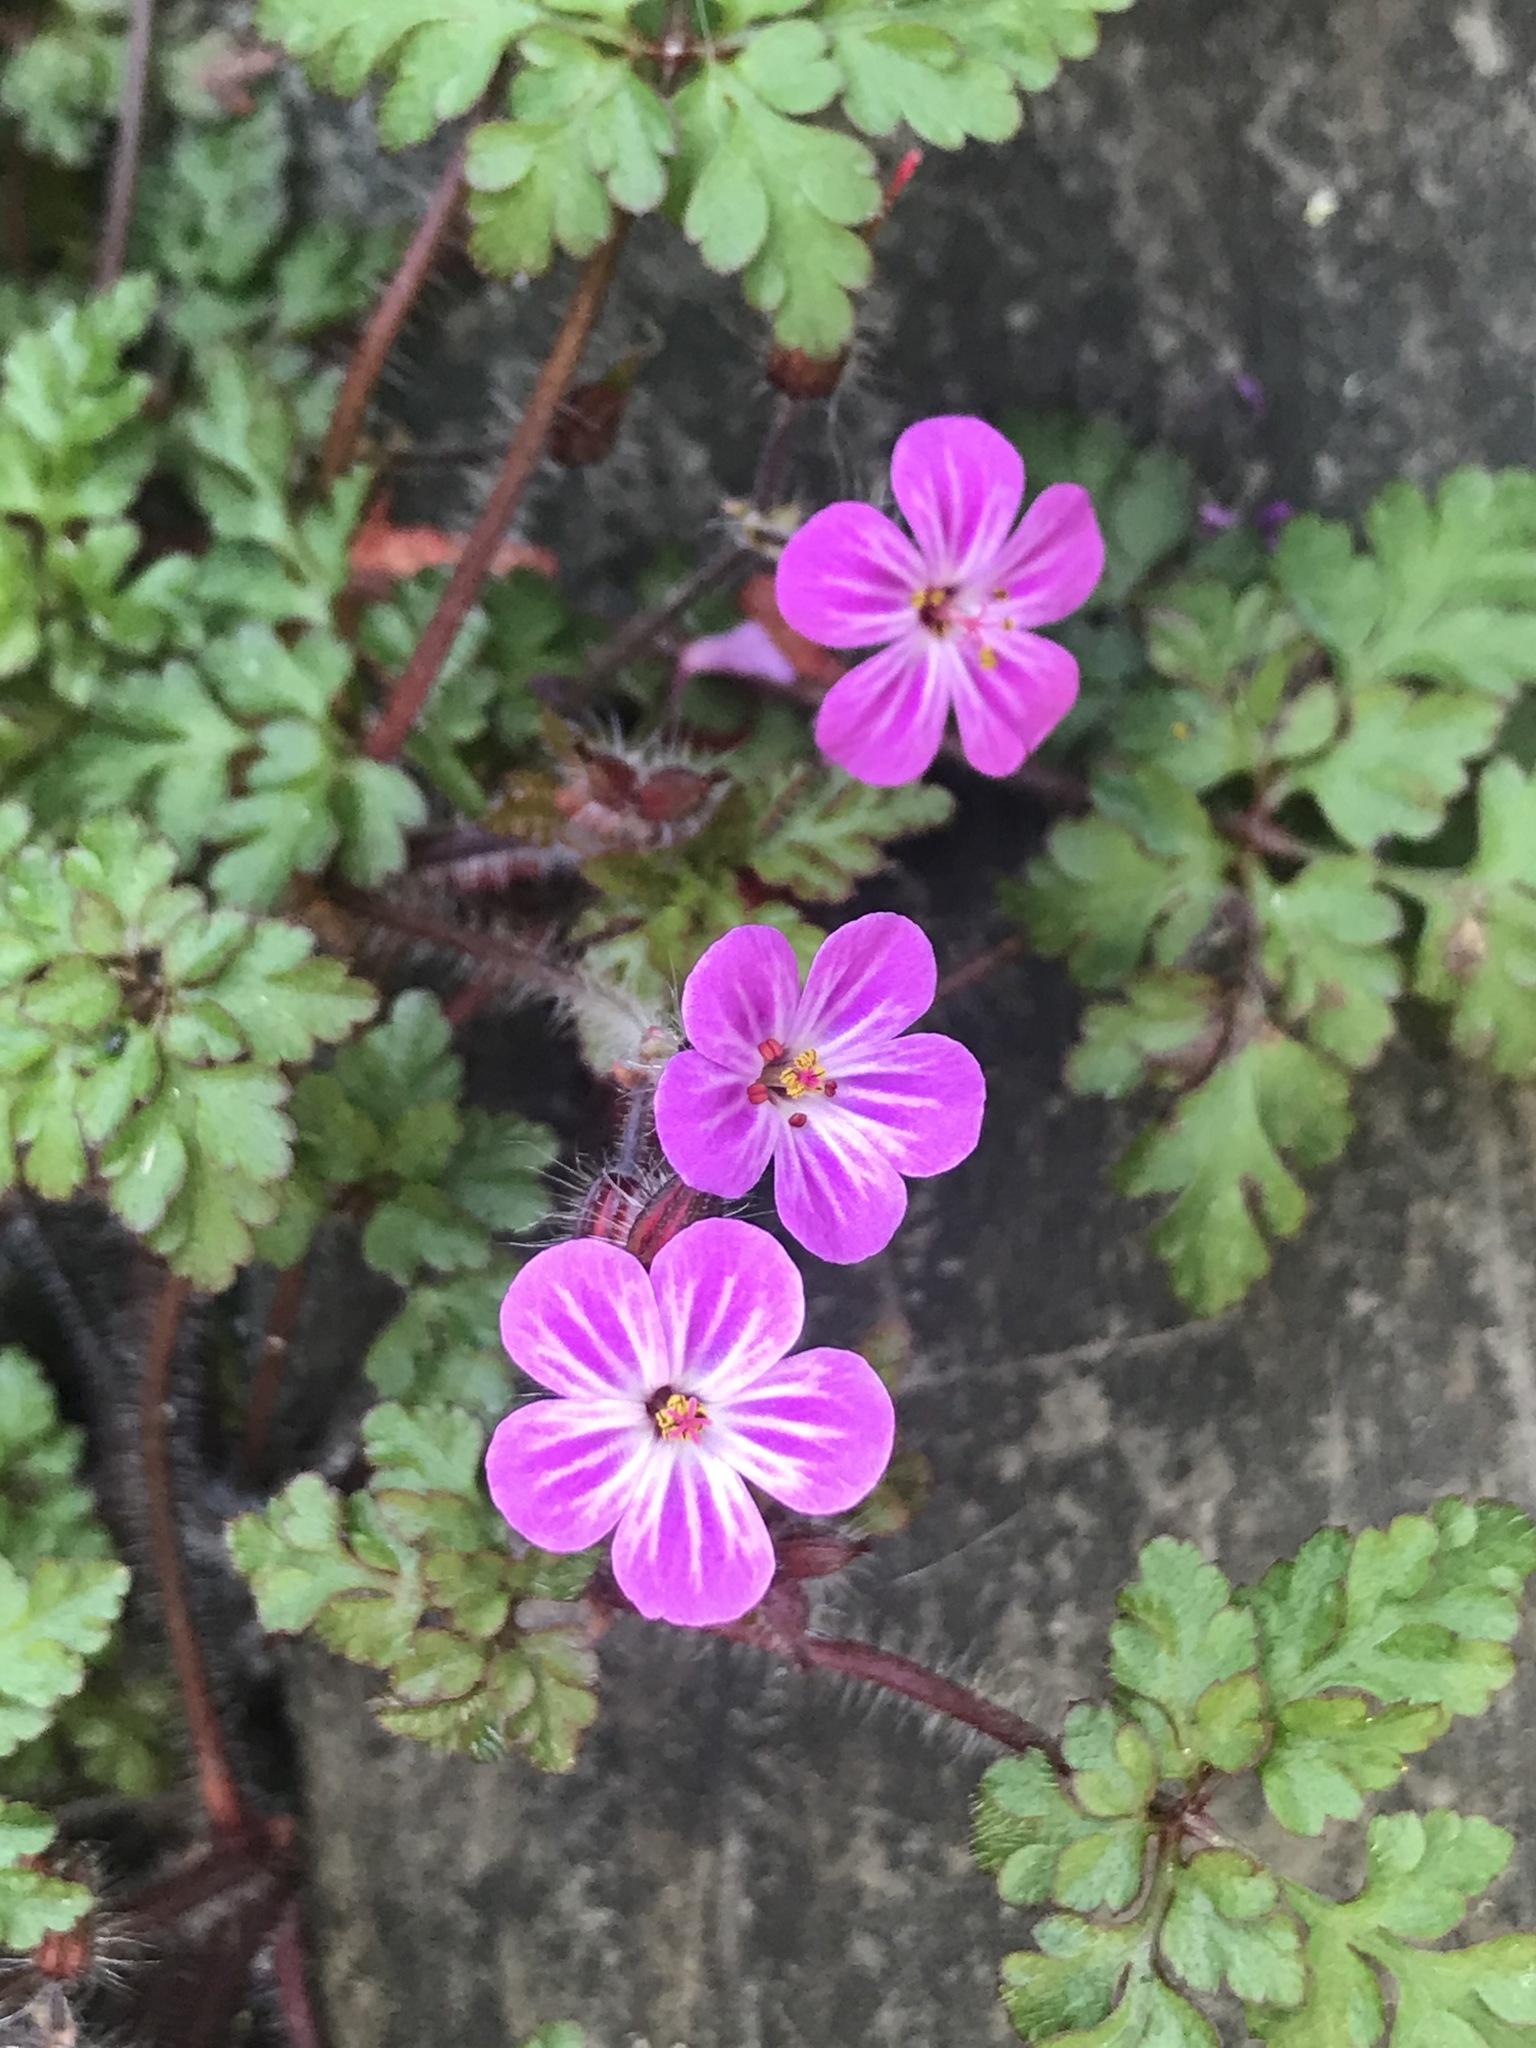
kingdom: Plantae
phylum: Tracheophyta
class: Magnoliopsida
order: Geraniales
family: Geraniaceae
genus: Geranium
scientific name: Geranium robertianum
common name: Herb-robert
